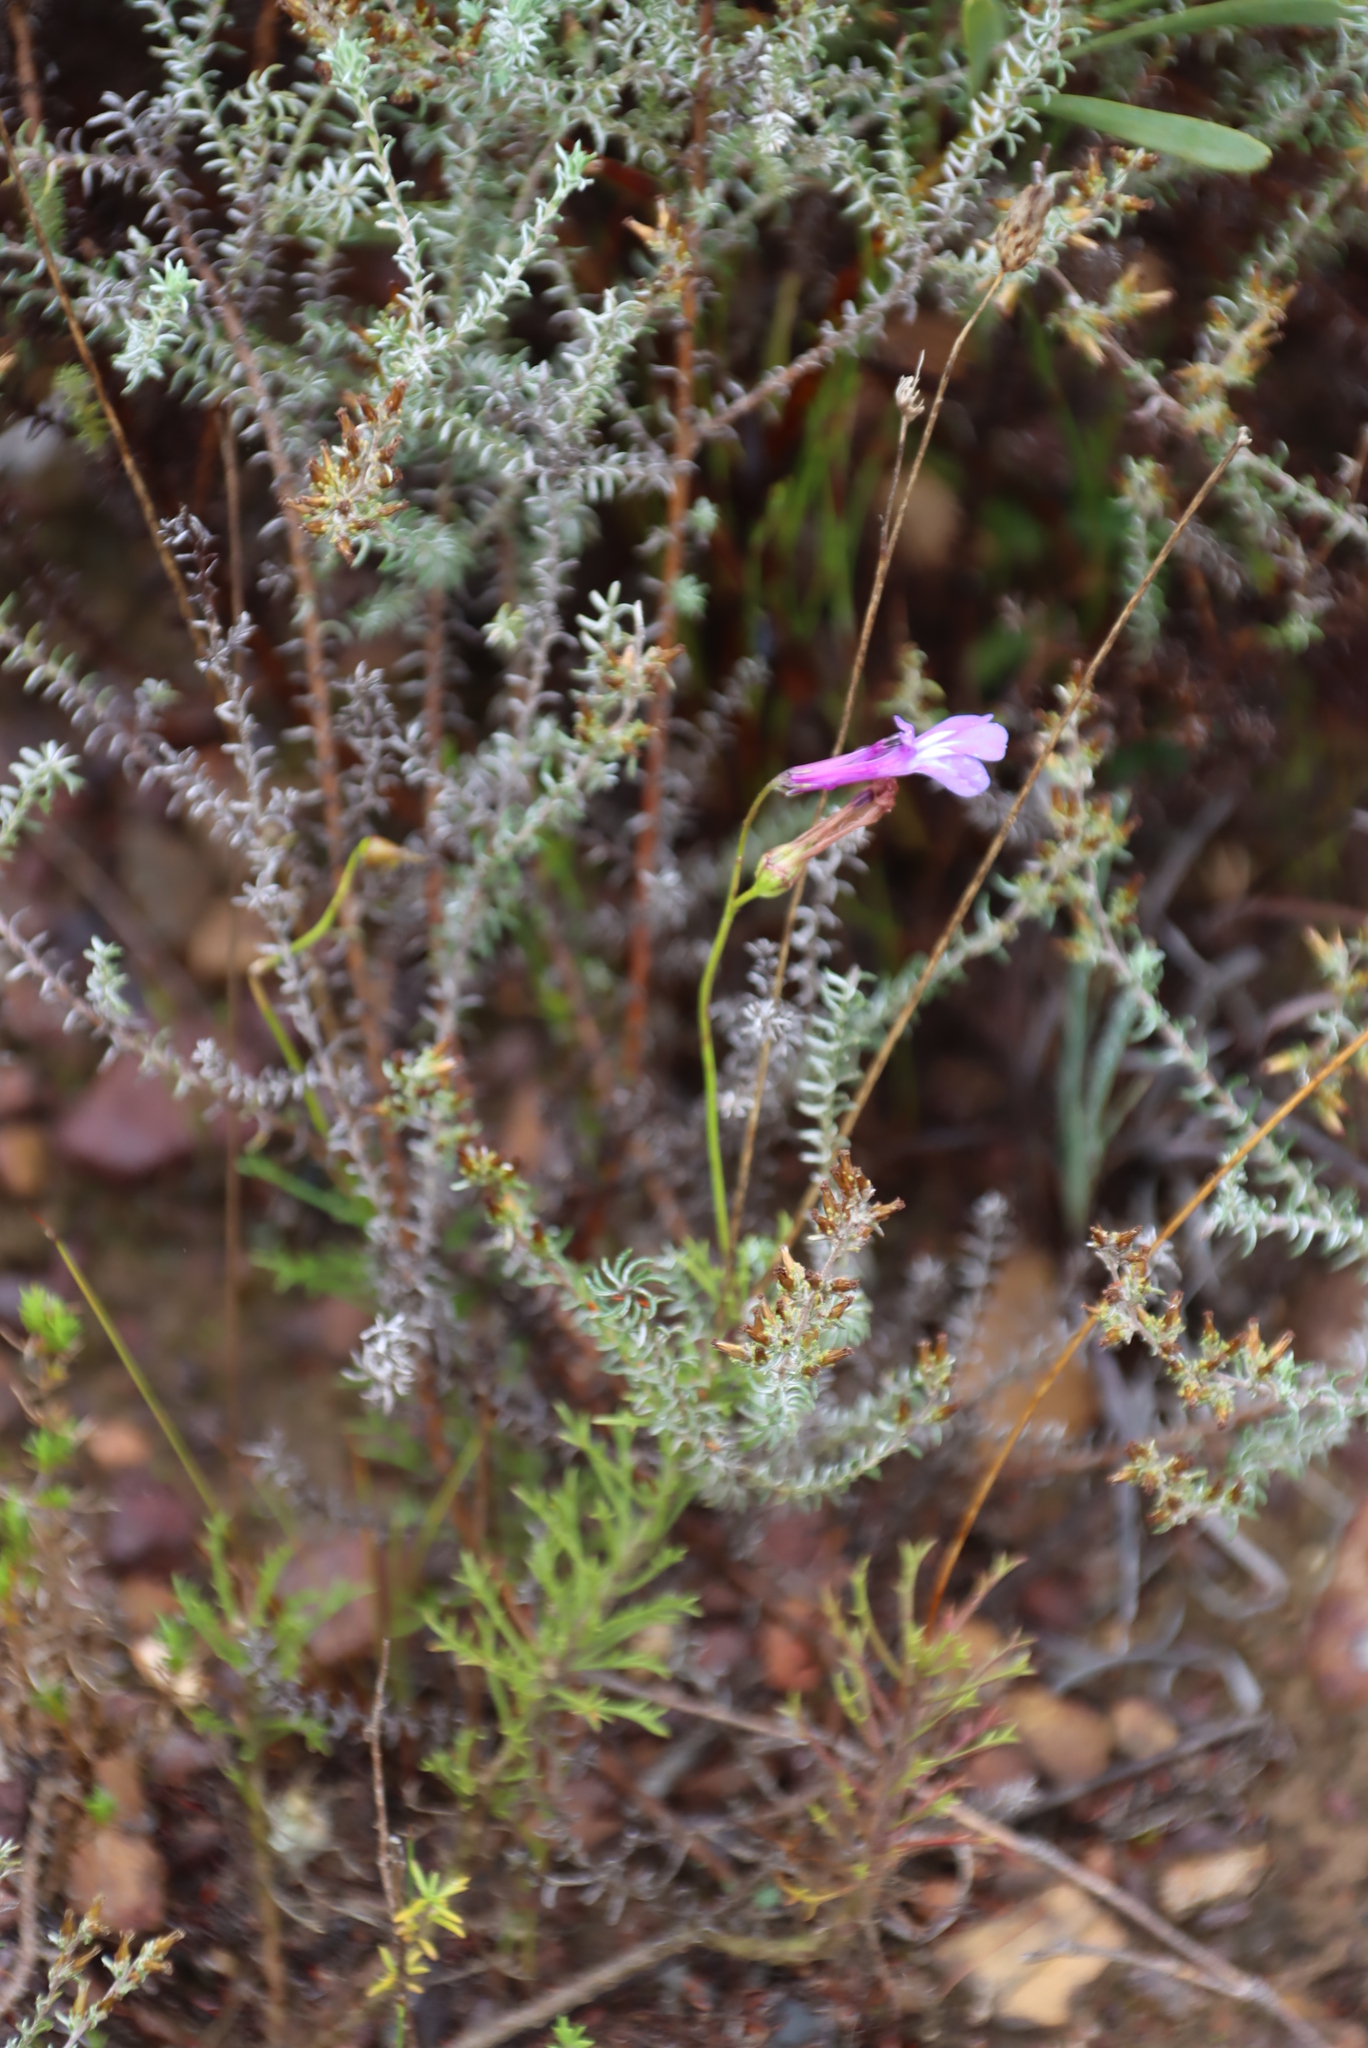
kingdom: Plantae
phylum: Tracheophyta
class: Magnoliopsida
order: Asterales
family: Campanulaceae
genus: Lobelia
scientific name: Lobelia coronopifolia
